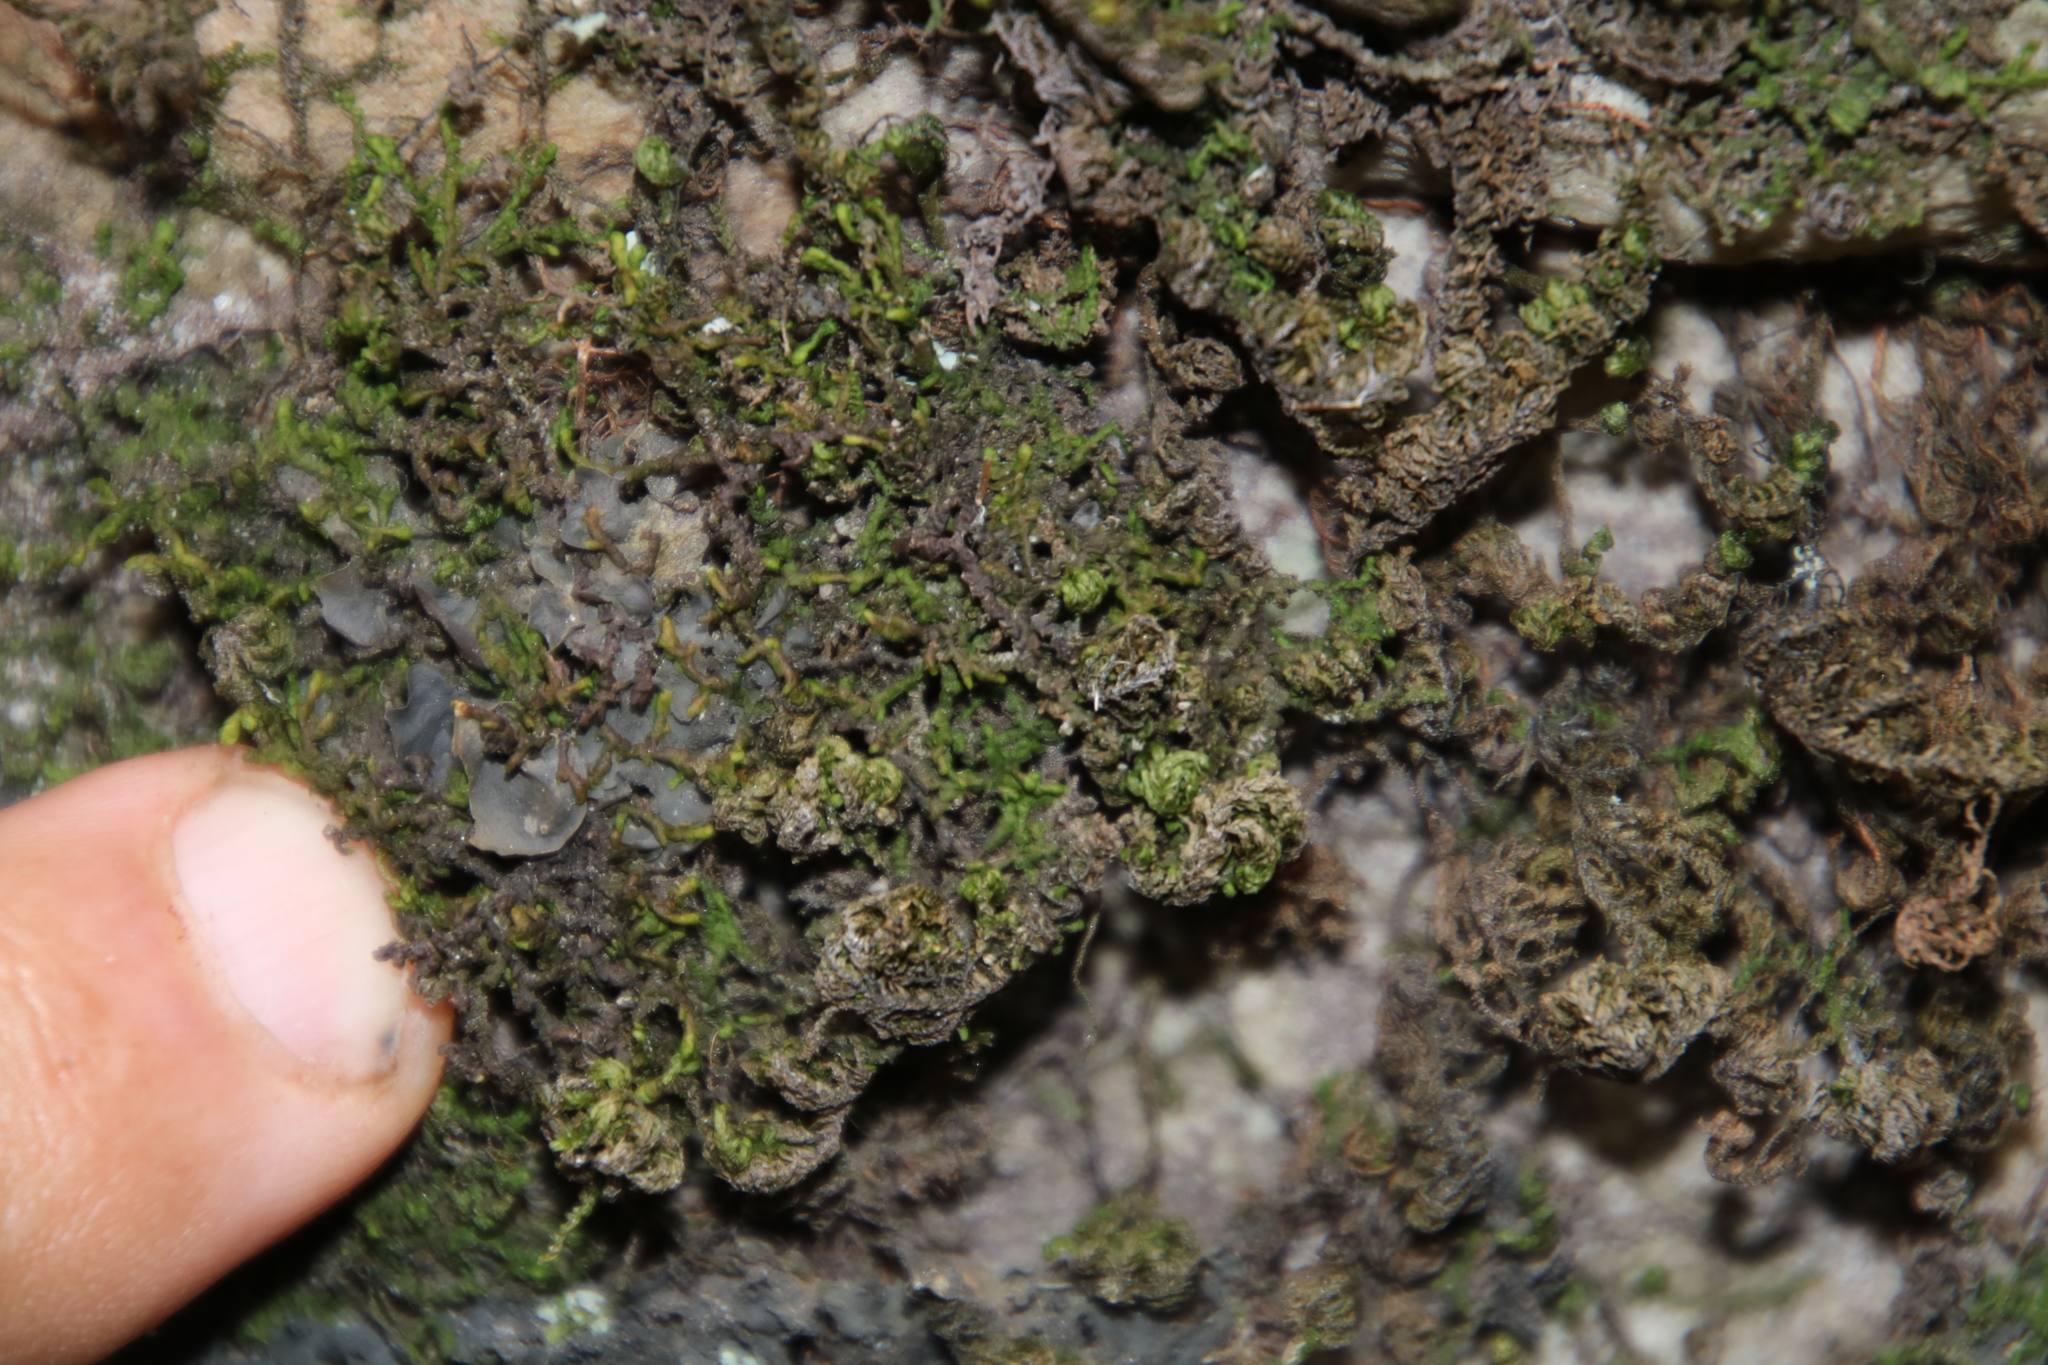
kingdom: Plantae
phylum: Bryophyta
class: Bryopsida
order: Hypnales
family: Neckeraceae
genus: Leptodon
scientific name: Leptodon smithii
